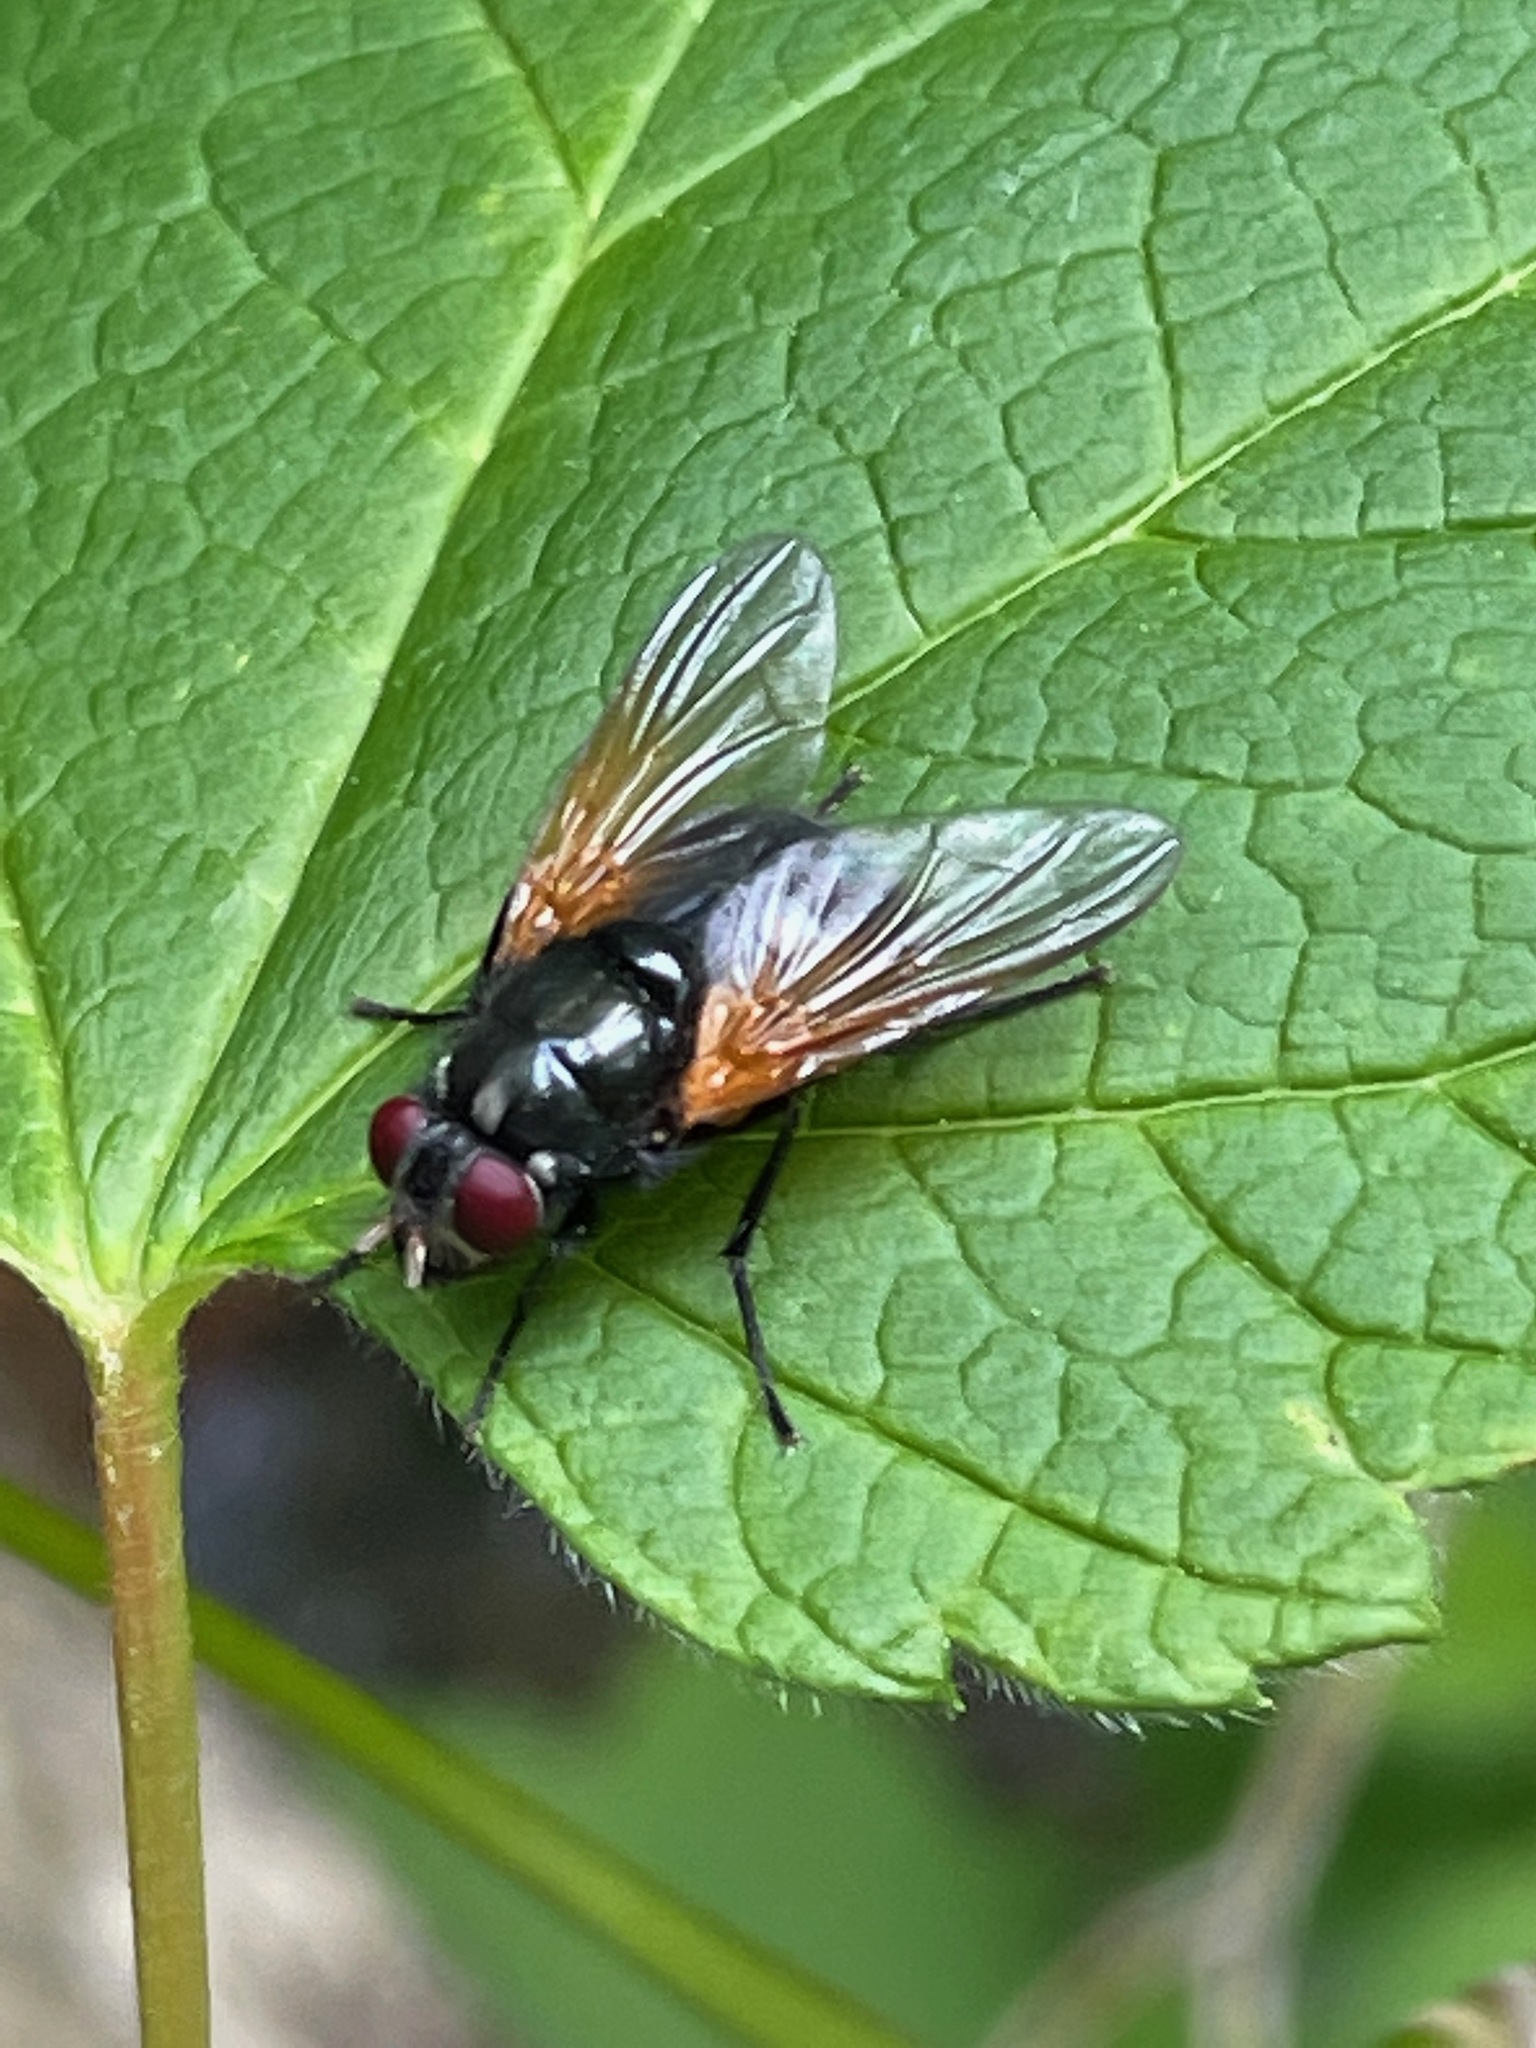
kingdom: Animalia
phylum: Arthropoda
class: Insecta
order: Diptera
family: Muscidae
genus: Mesembrina
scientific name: Mesembrina latreillii
